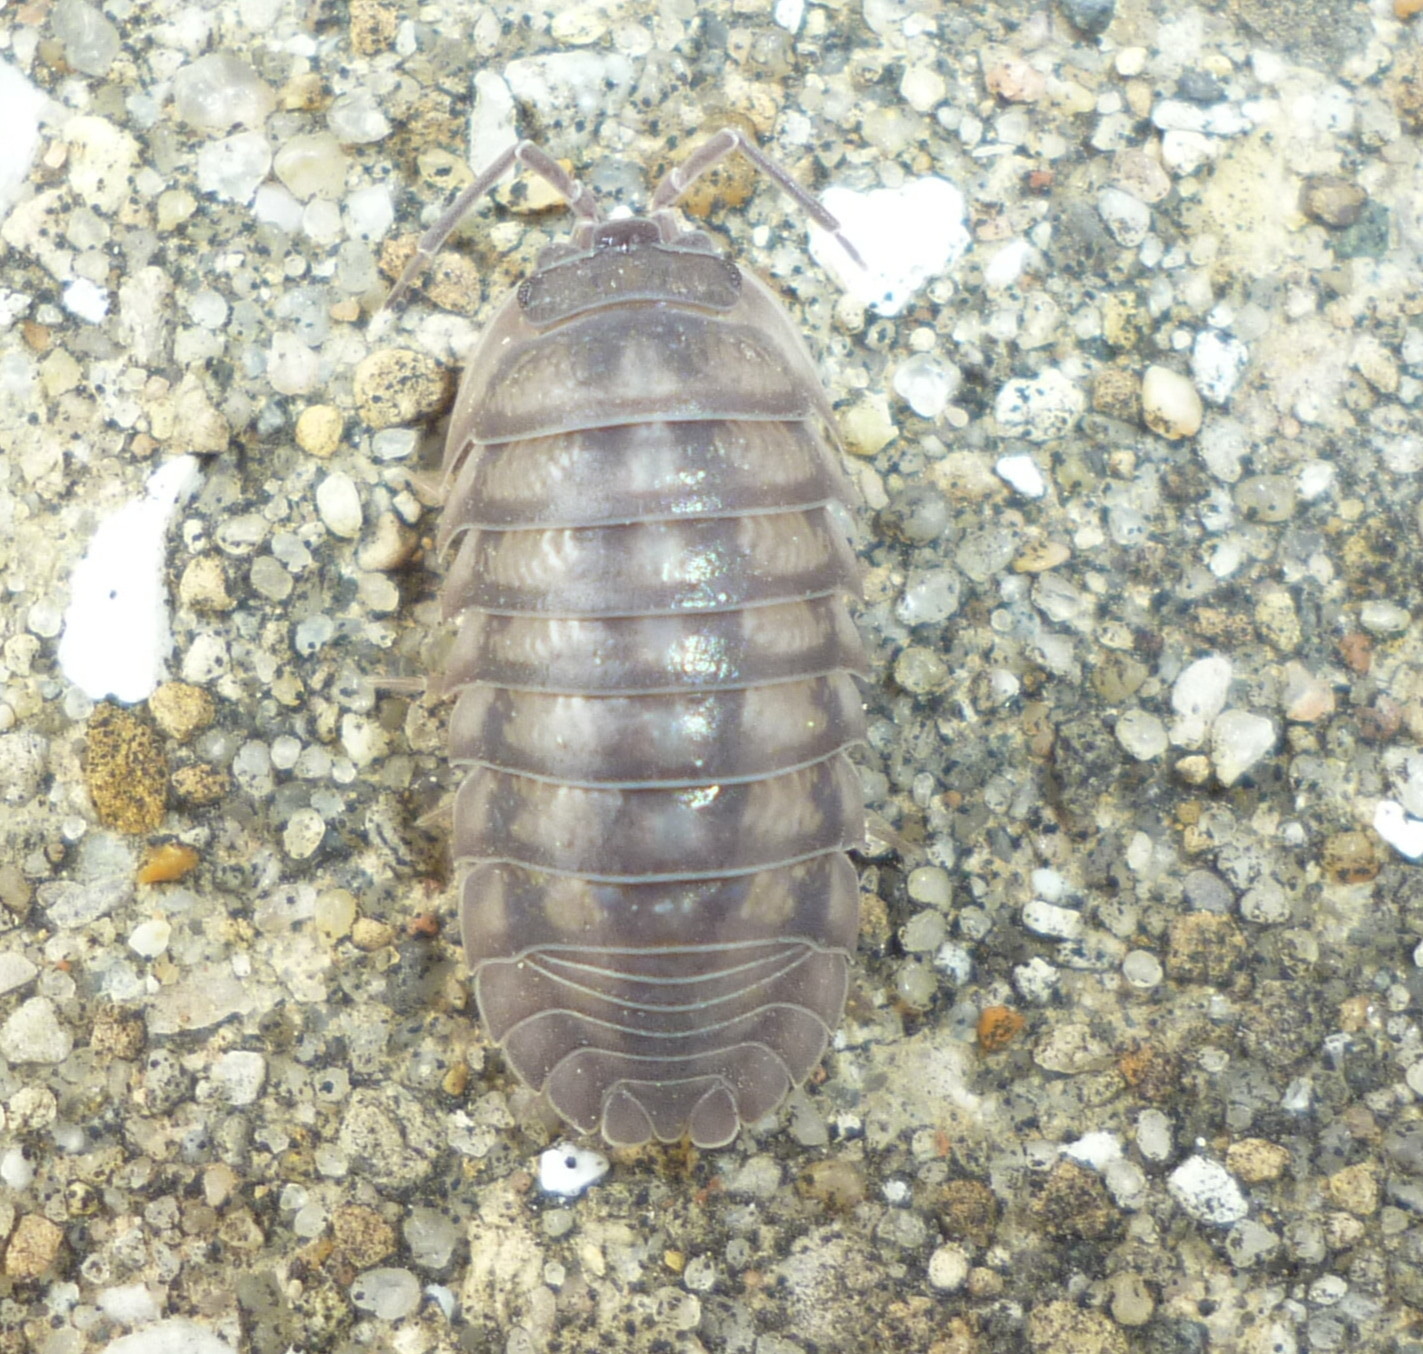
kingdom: Animalia
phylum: Arthropoda
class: Malacostraca
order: Isopoda
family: Armadillidiidae
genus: Armadillidium
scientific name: Armadillidium nasatum
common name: Isopod
